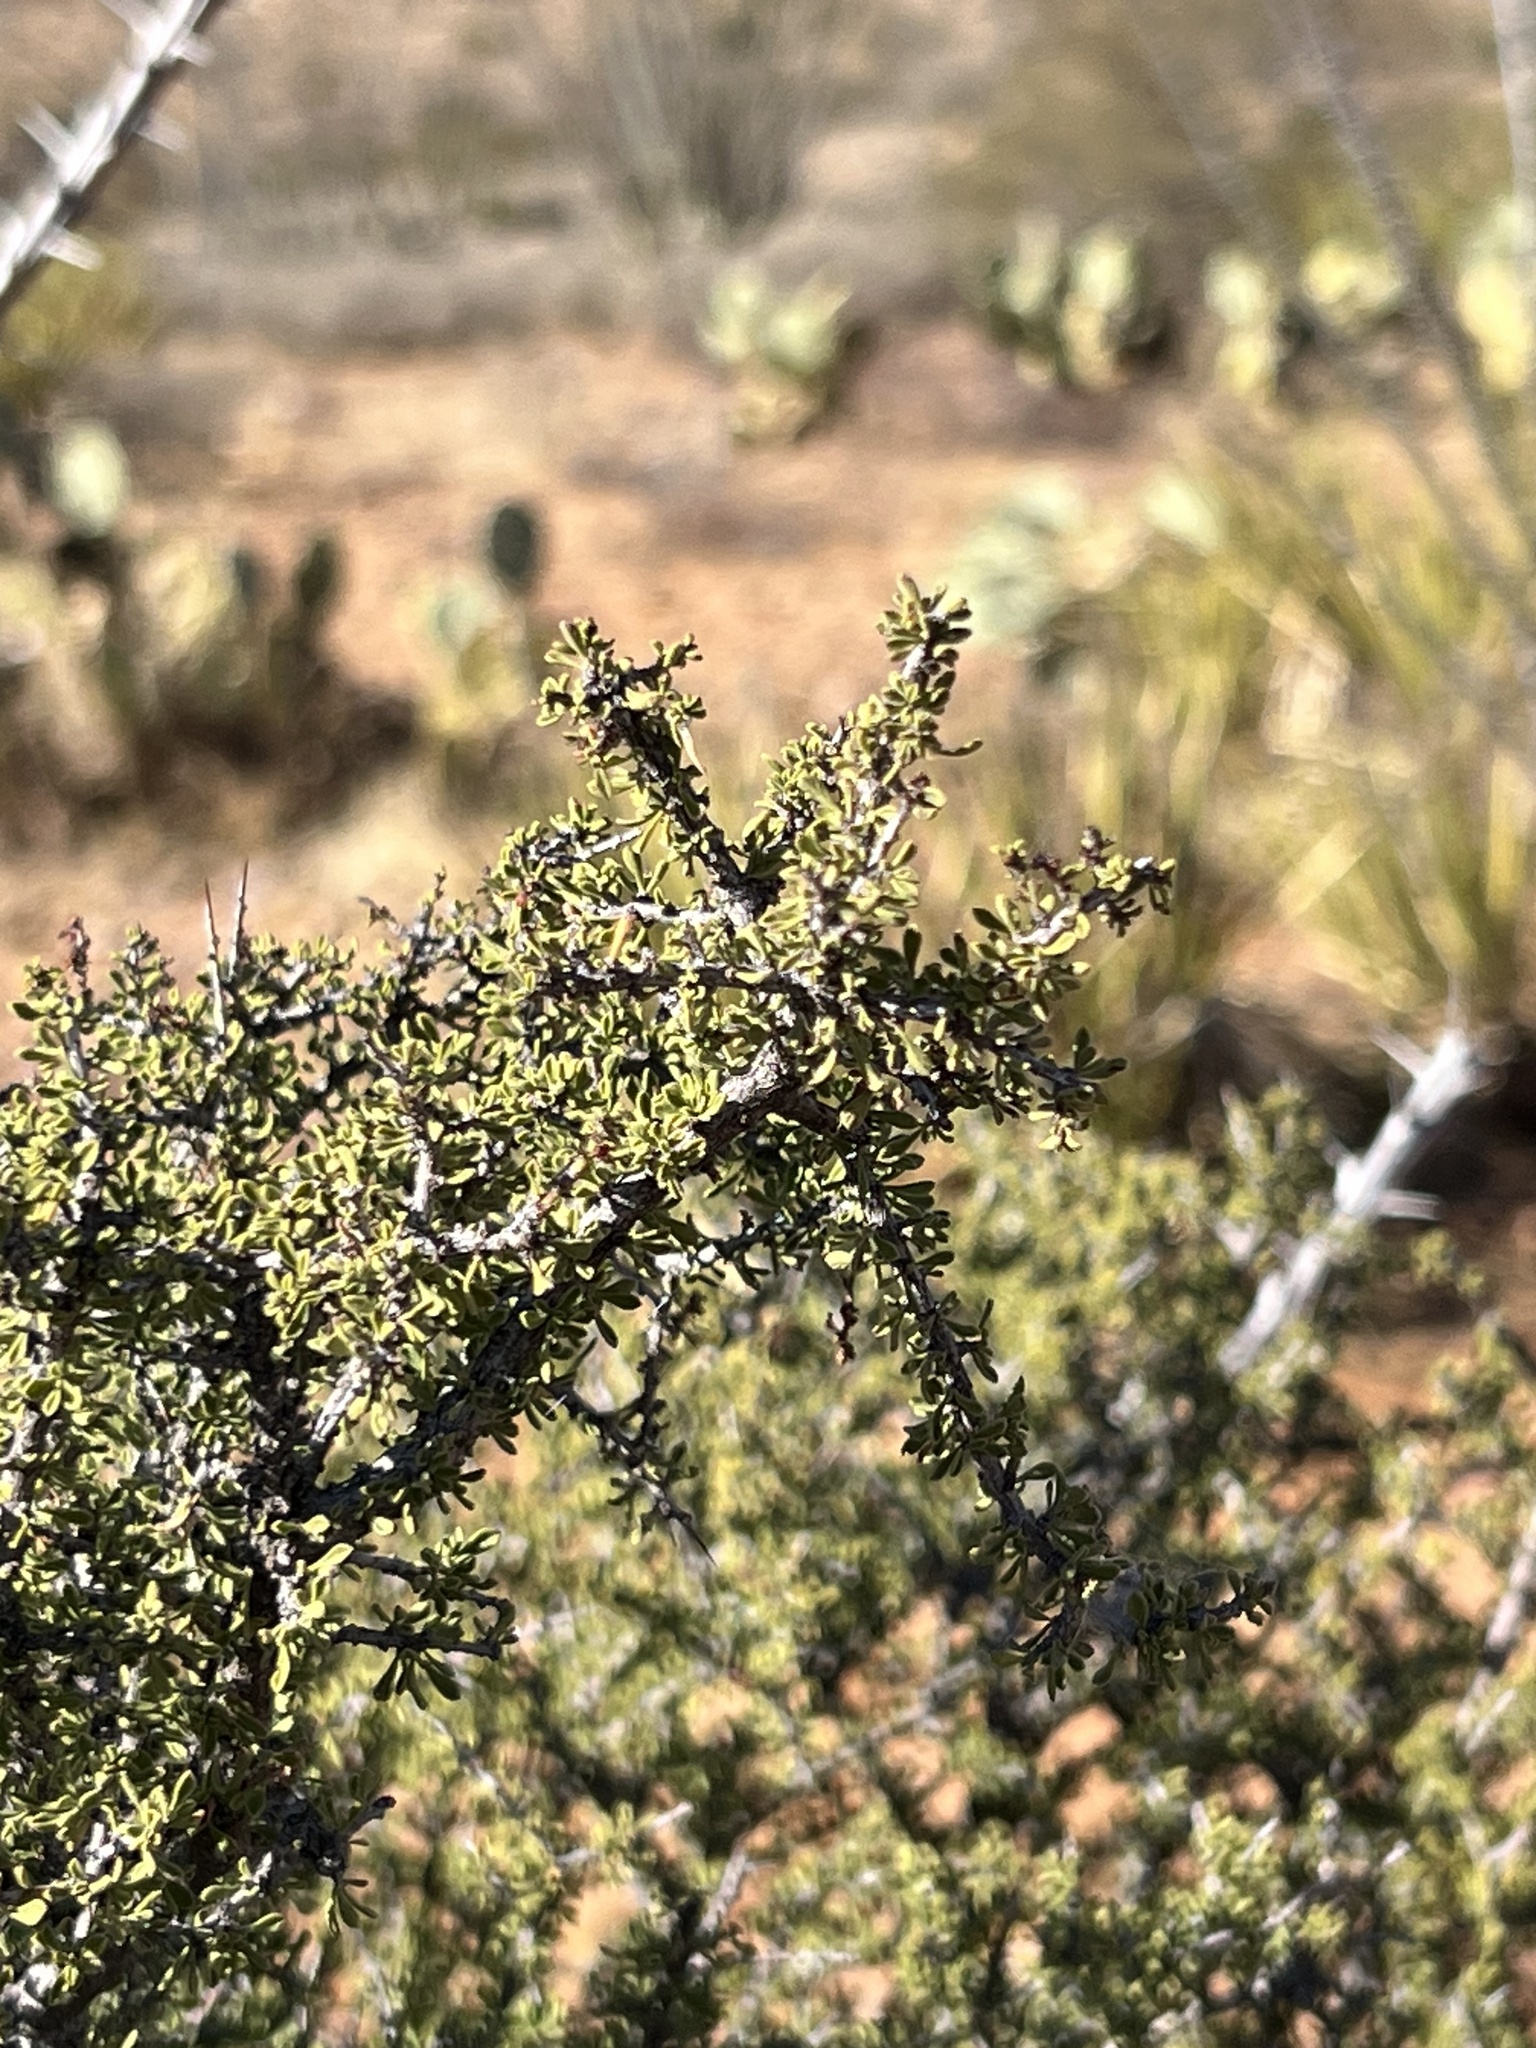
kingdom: Plantae
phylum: Tracheophyta
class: Magnoliopsida
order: Rosales
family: Rhamnaceae
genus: Condalia
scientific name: Condalia warnockii
